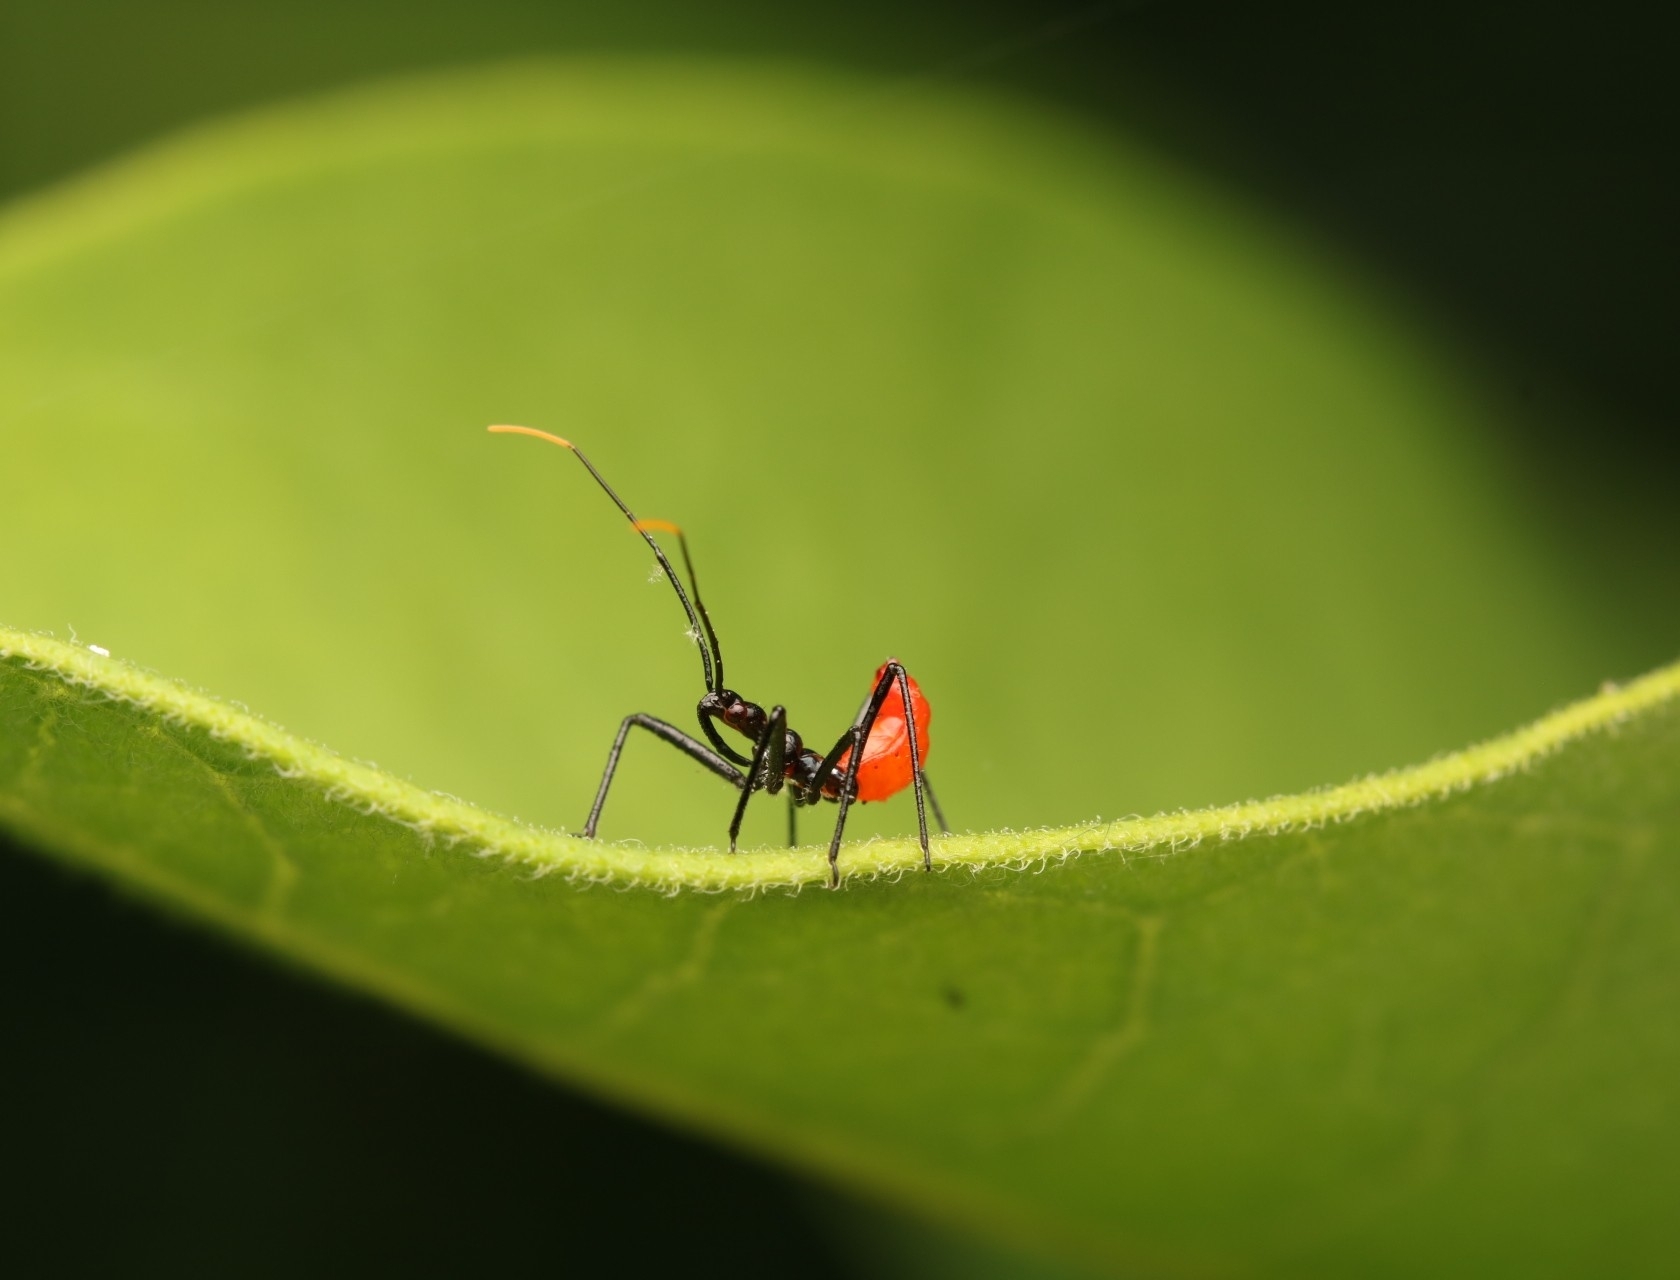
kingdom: Animalia
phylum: Arthropoda
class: Insecta
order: Hemiptera
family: Reduviidae
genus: Arilus
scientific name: Arilus cristatus
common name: North american wheel bug
